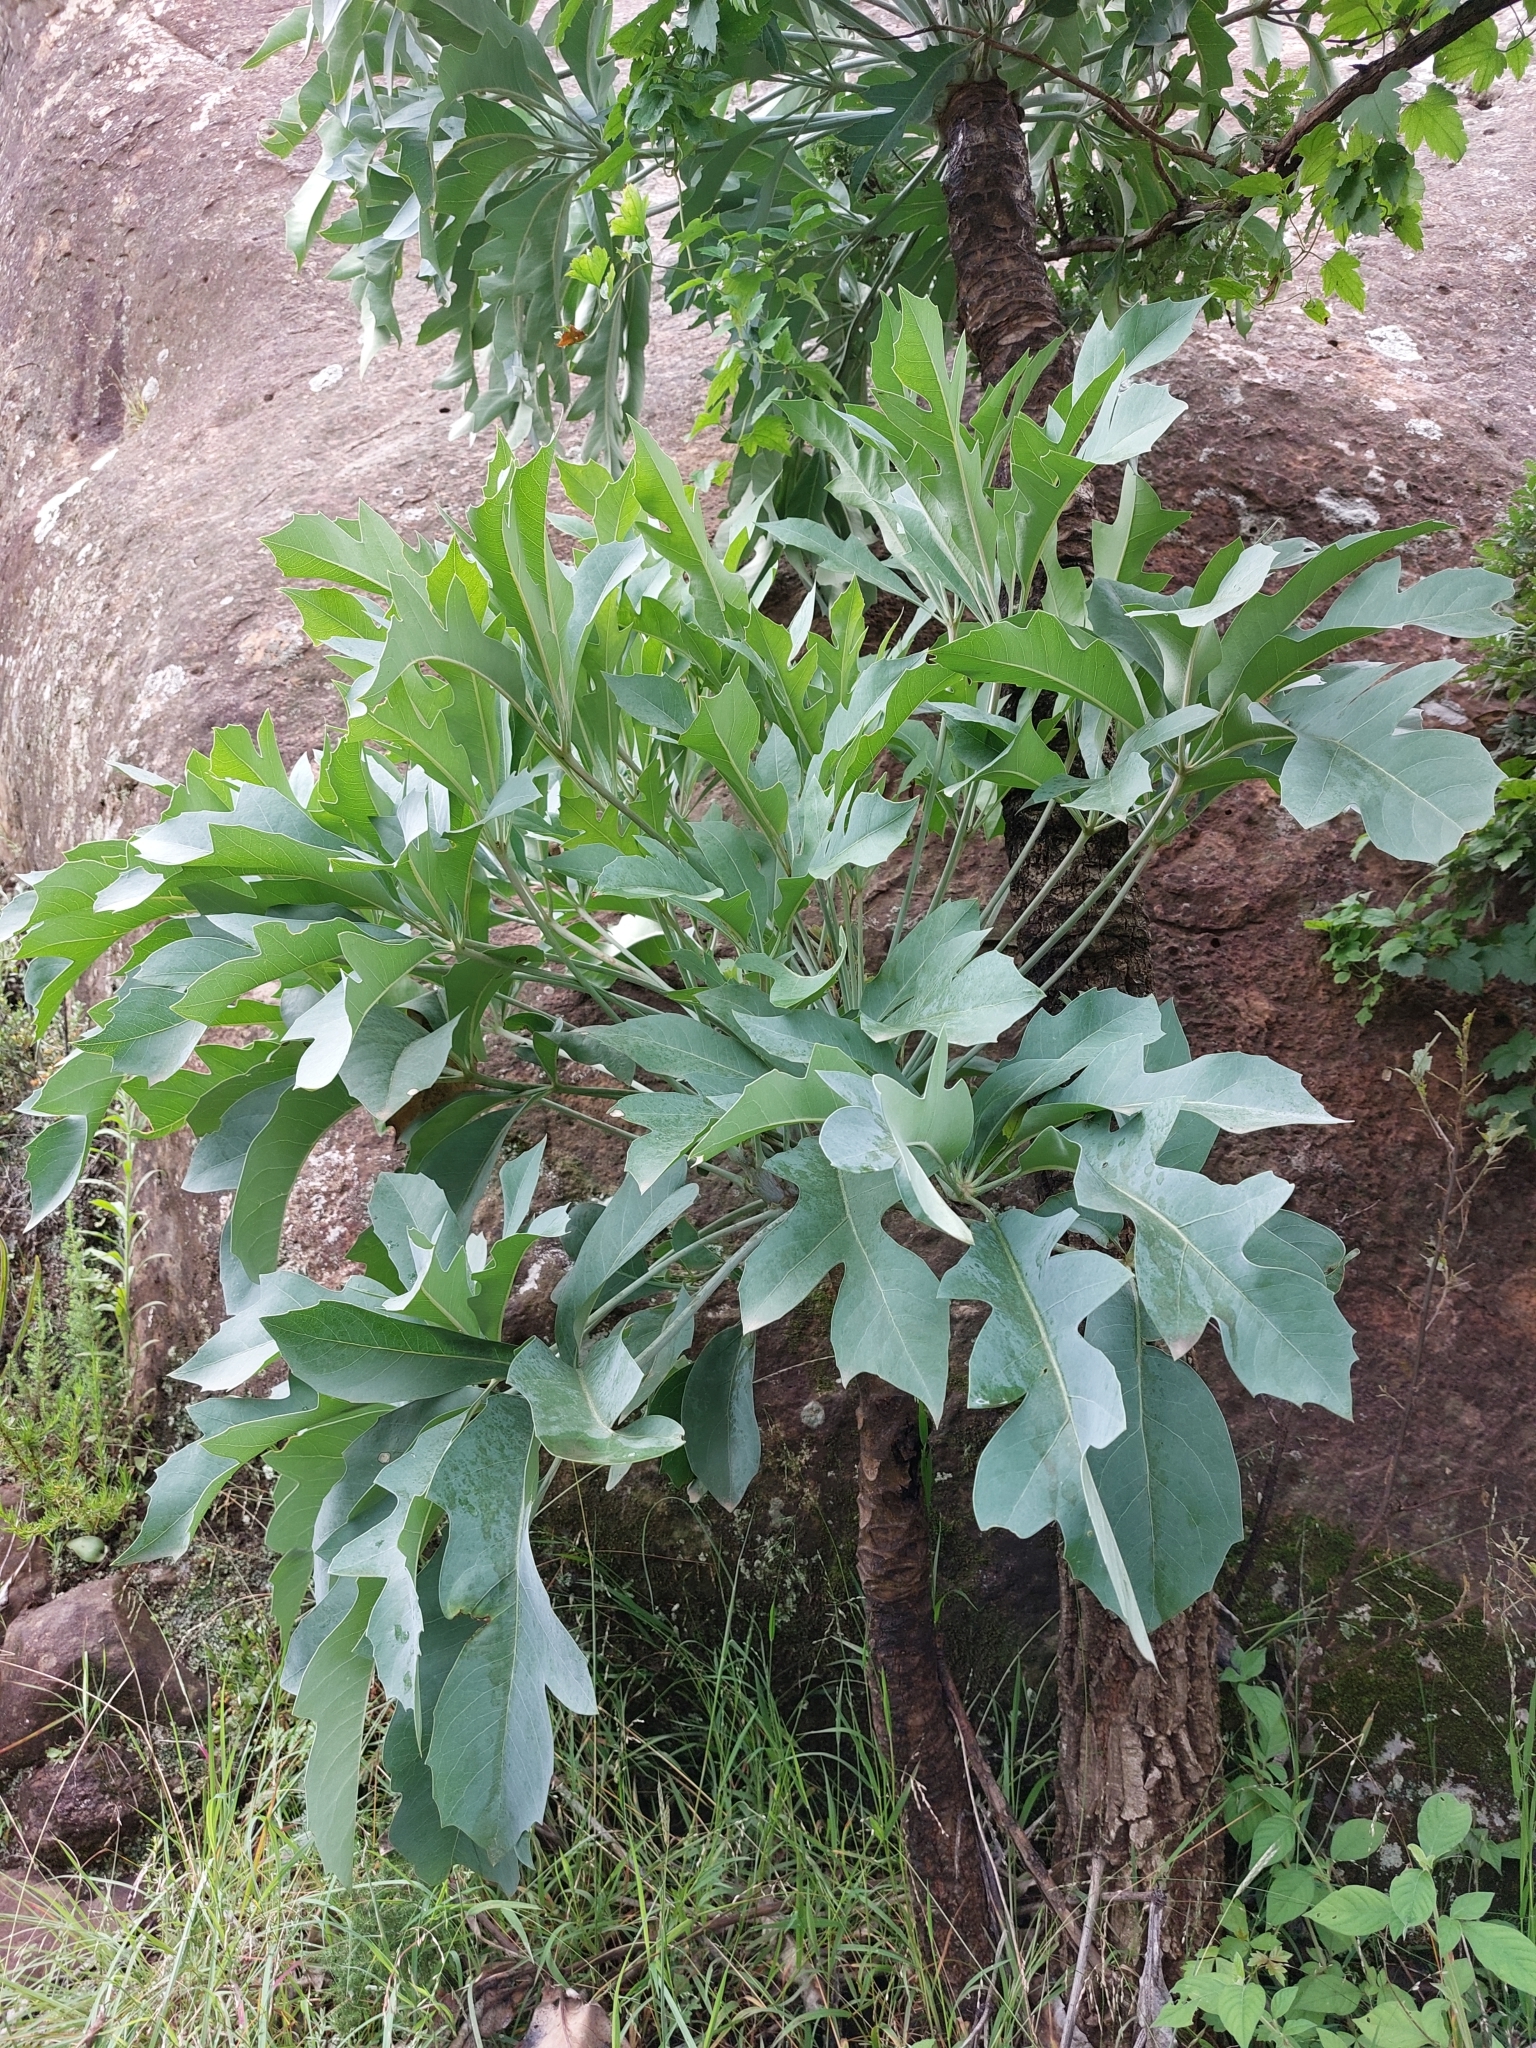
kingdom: Plantae
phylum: Tracheophyta
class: Magnoliopsida
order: Apiales
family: Araliaceae
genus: Cussonia
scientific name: Cussonia paniculata
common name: Cabbagetree
